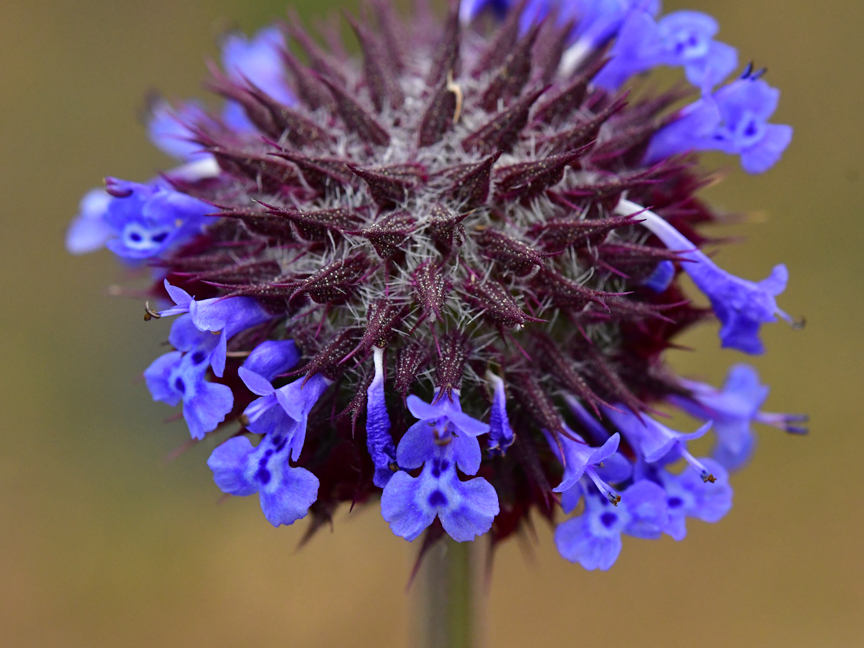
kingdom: Plantae
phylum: Tracheophyta
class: Magnoliopsida
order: Lamiales
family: Lamiaceae
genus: Salvia
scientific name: Salvia columbariae
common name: Chia
